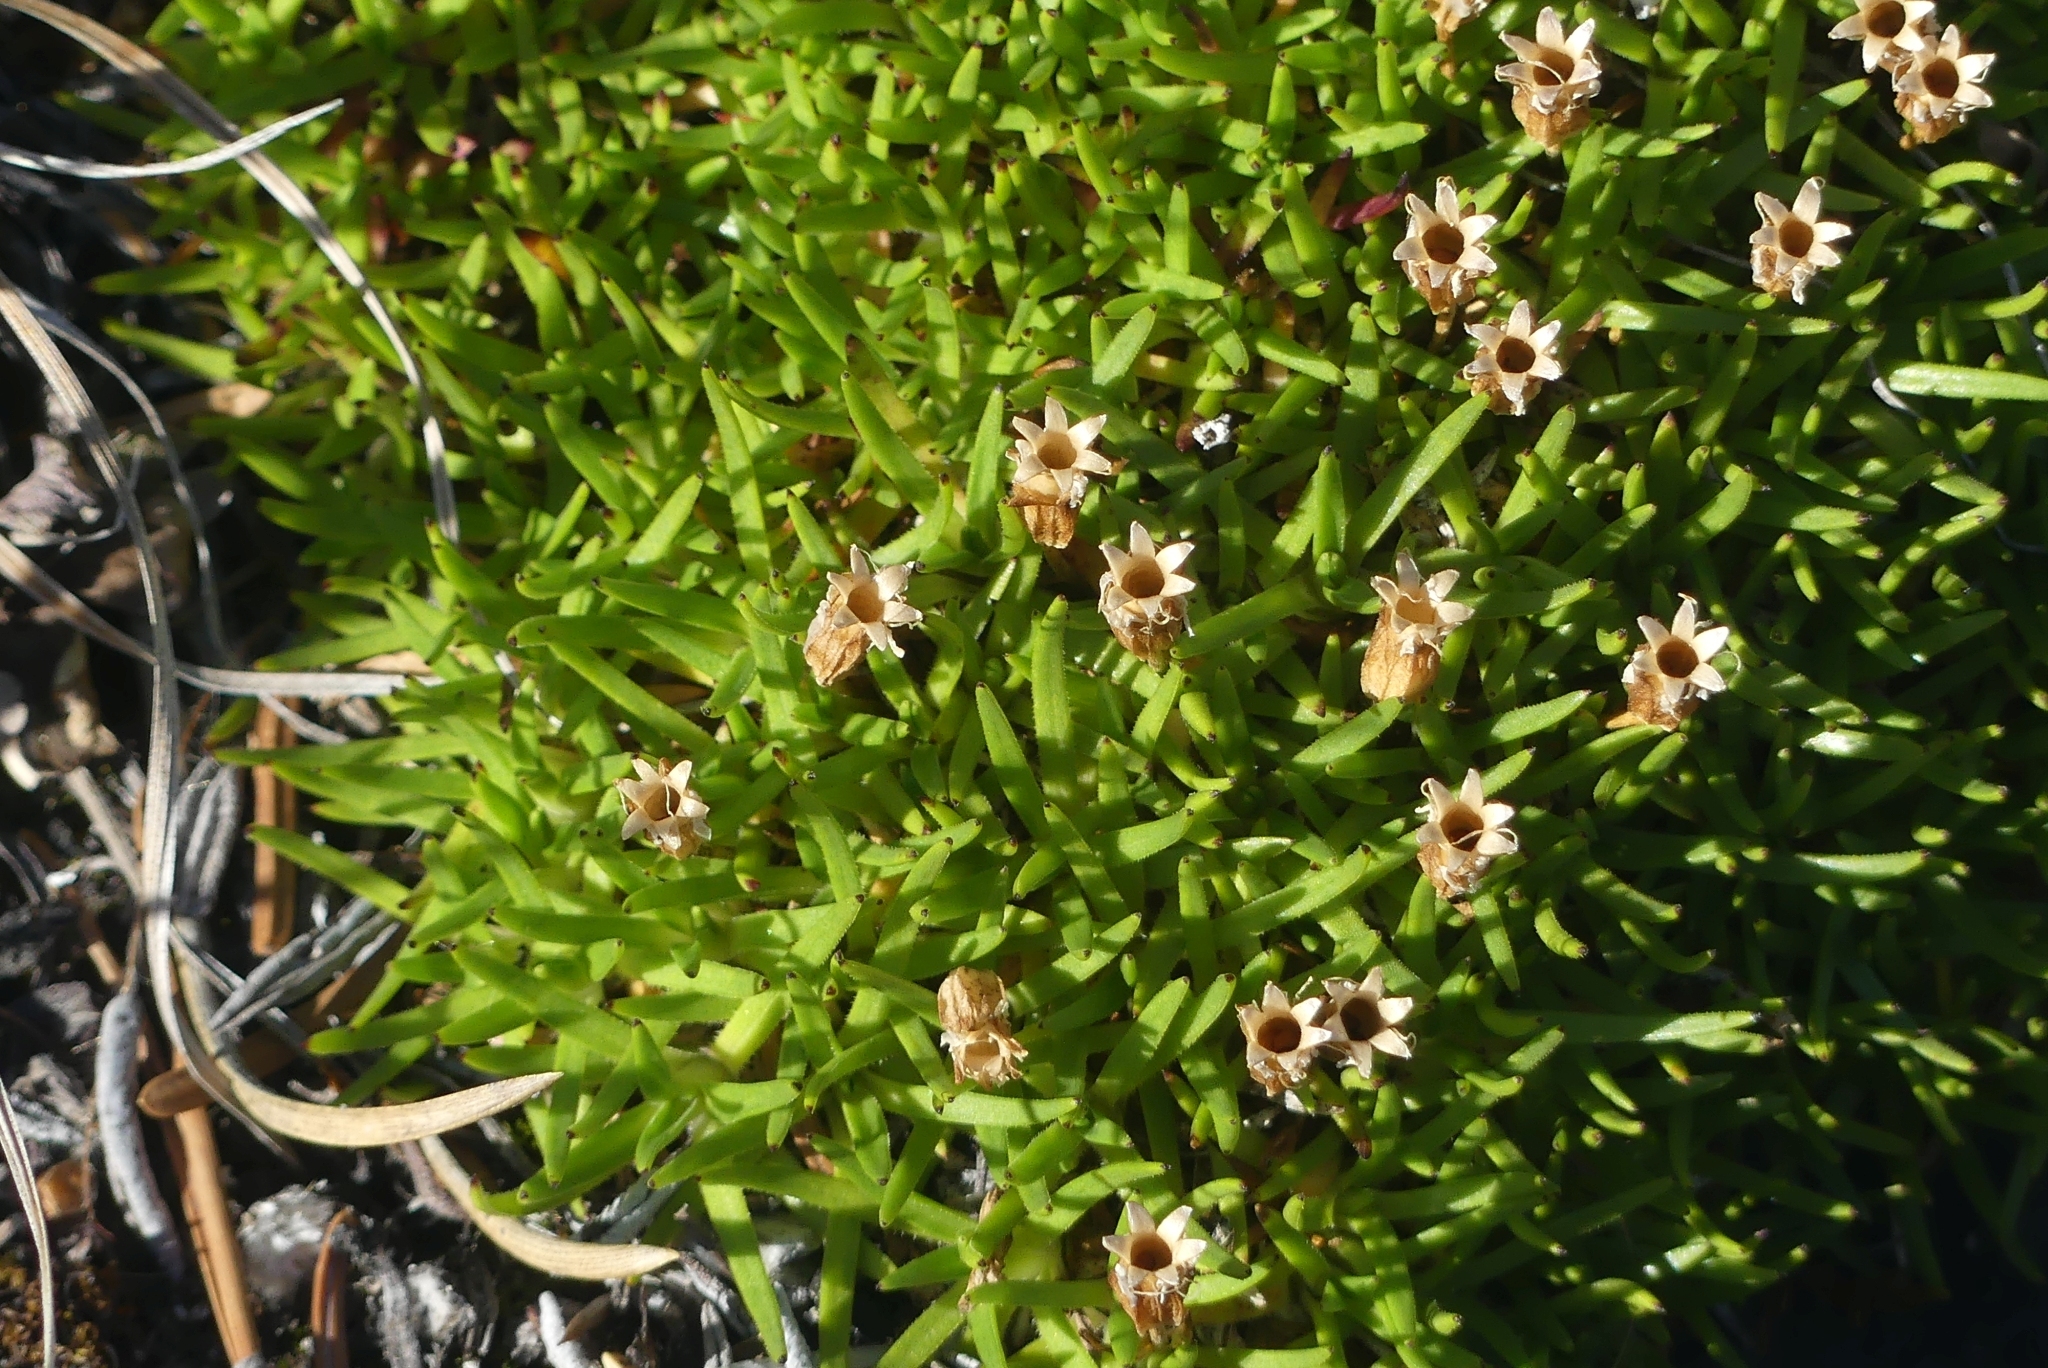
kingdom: Plantae
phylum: Tracheophyta
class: Magnoliopsida
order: Caryophyllales
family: Caryophyllaceae
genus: Silene
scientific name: Silene acaulis
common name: Moss campion
